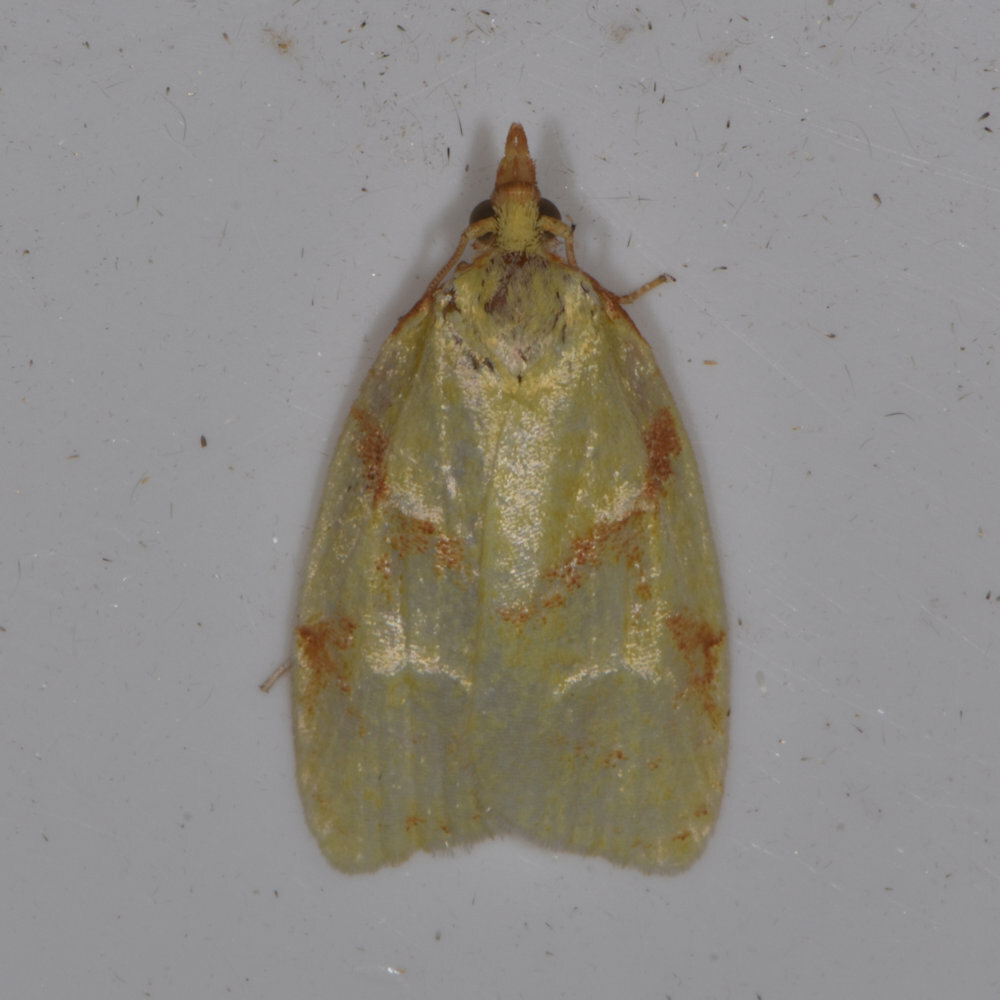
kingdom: Animalia
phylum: Arthropoda
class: Insecta
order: Lepidoptera
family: Tortricidae
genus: Cenopis
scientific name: Cenopis pettitana
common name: Maple-basswood leafroller moth
